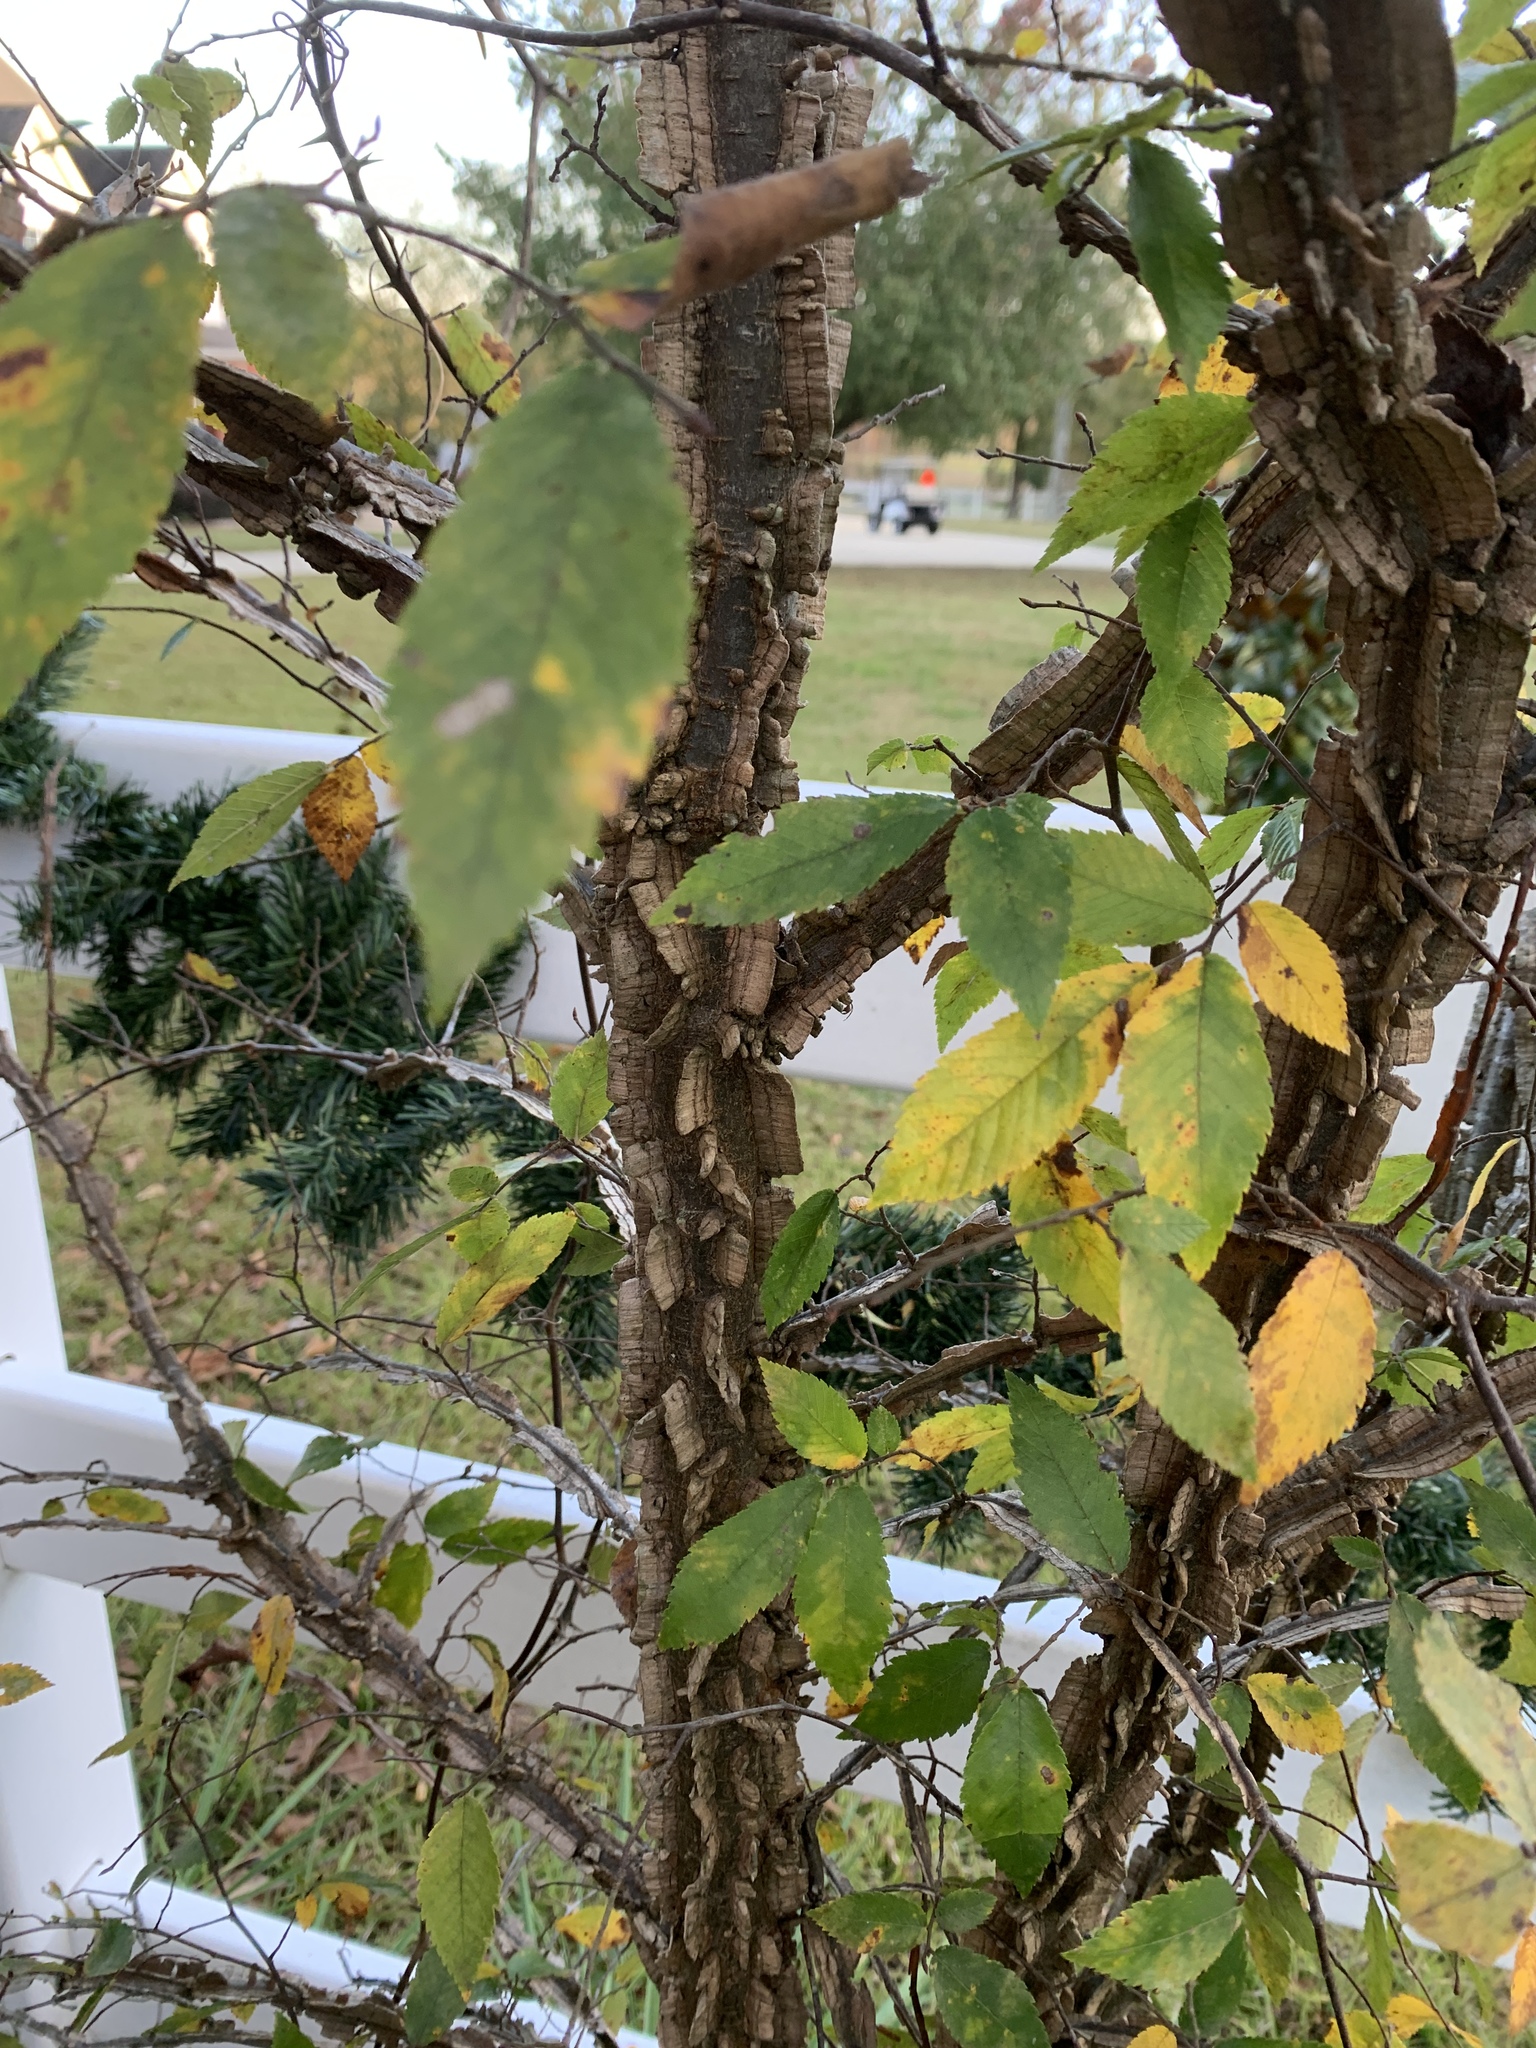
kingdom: Plantae
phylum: Tracheophyta
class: Magnoliopsida
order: Rosales
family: Ulmaceae
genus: Ulmus
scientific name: Ulmus alata
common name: Winged elm
